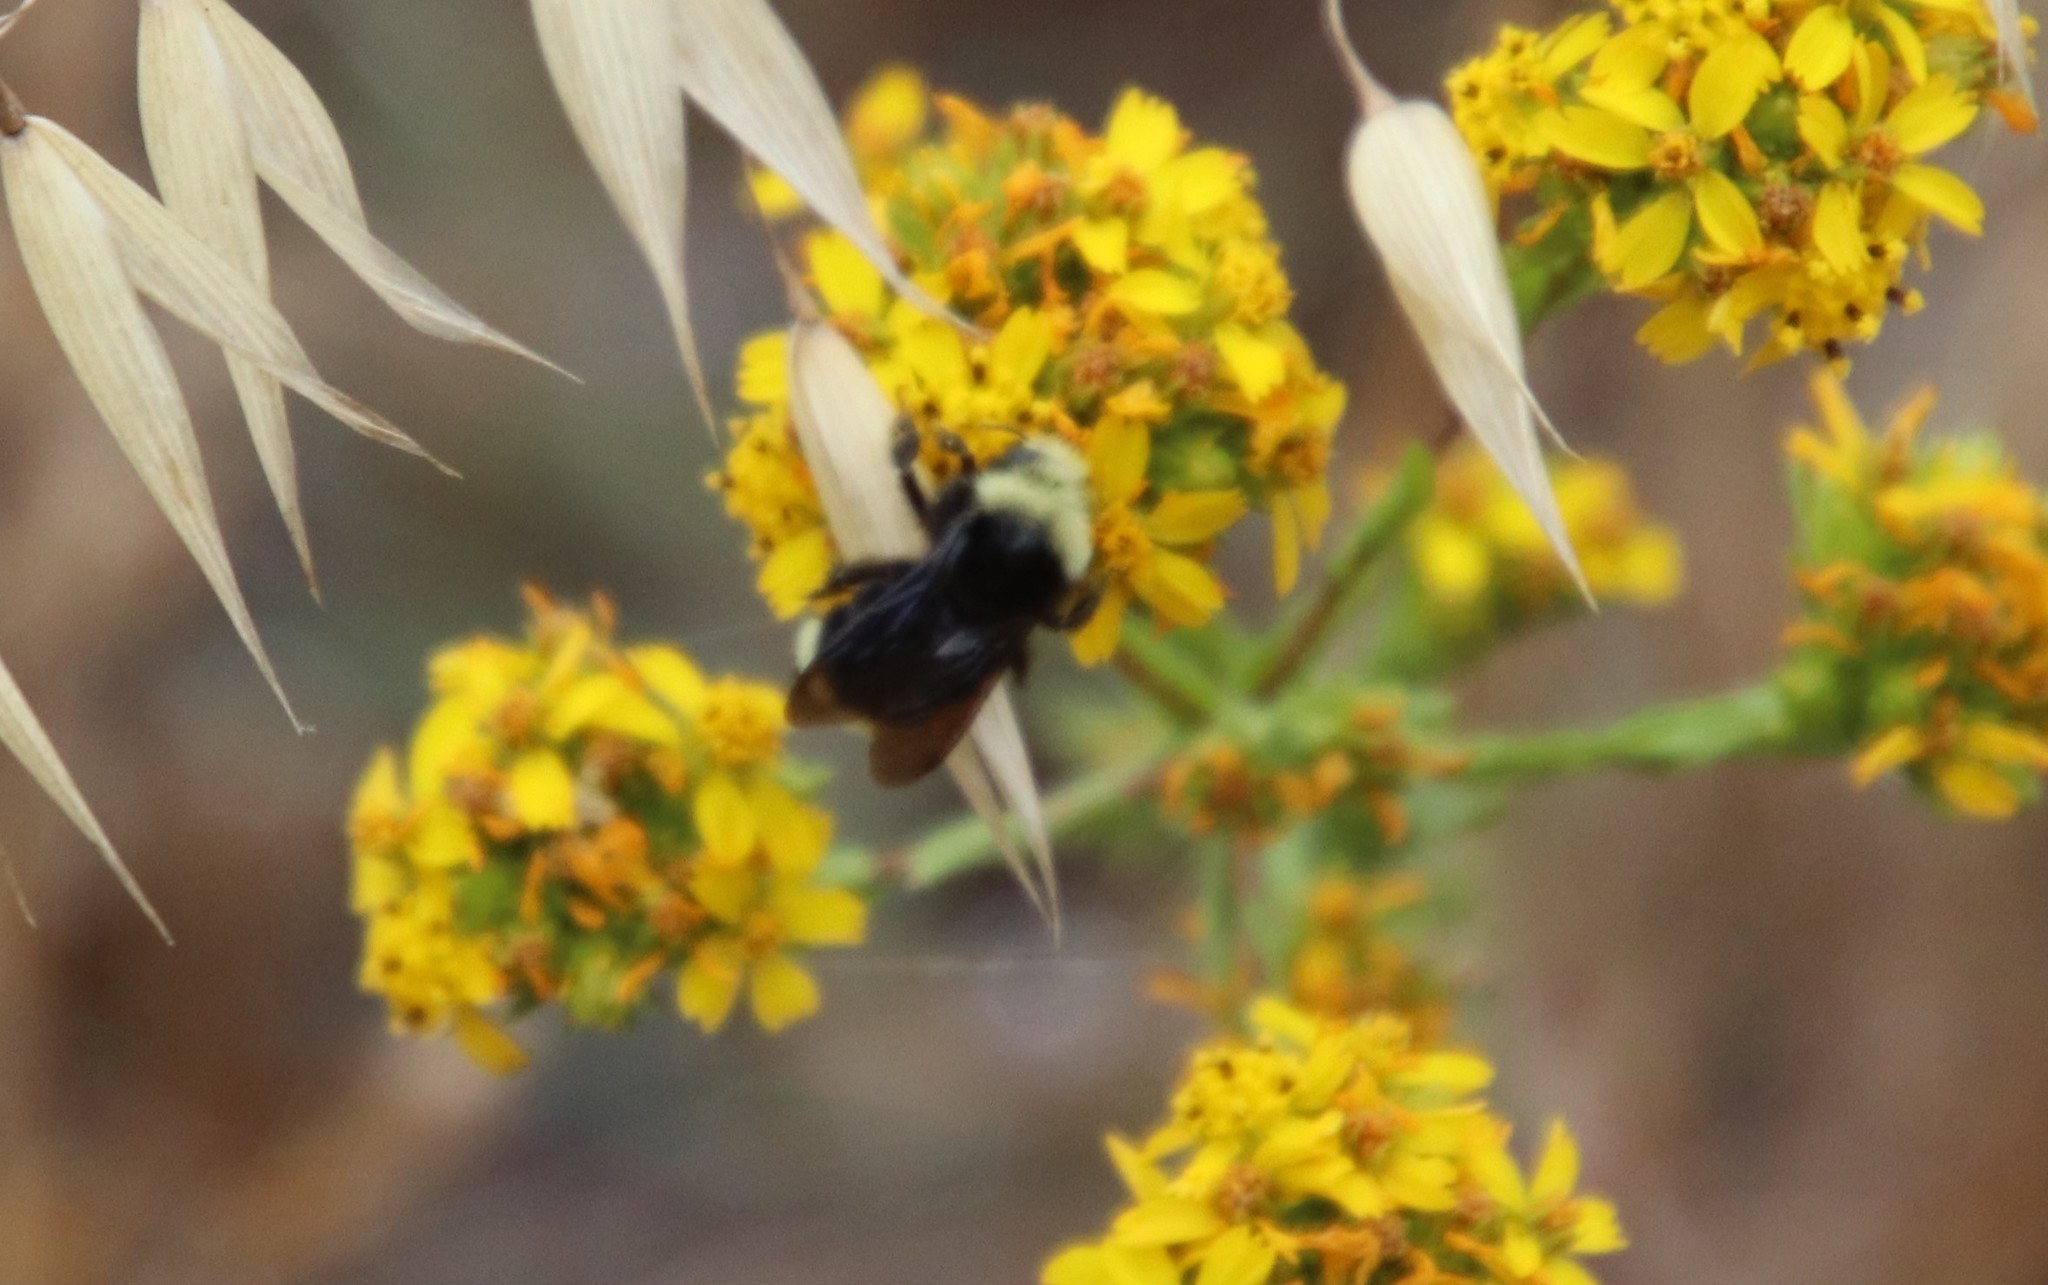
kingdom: Animalia
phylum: Arthropoda
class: Insecta
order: Hymenoptera
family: Apidae
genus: Bombus
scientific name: Bombus vosnesenskii
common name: Vosnesensky bumble bee
